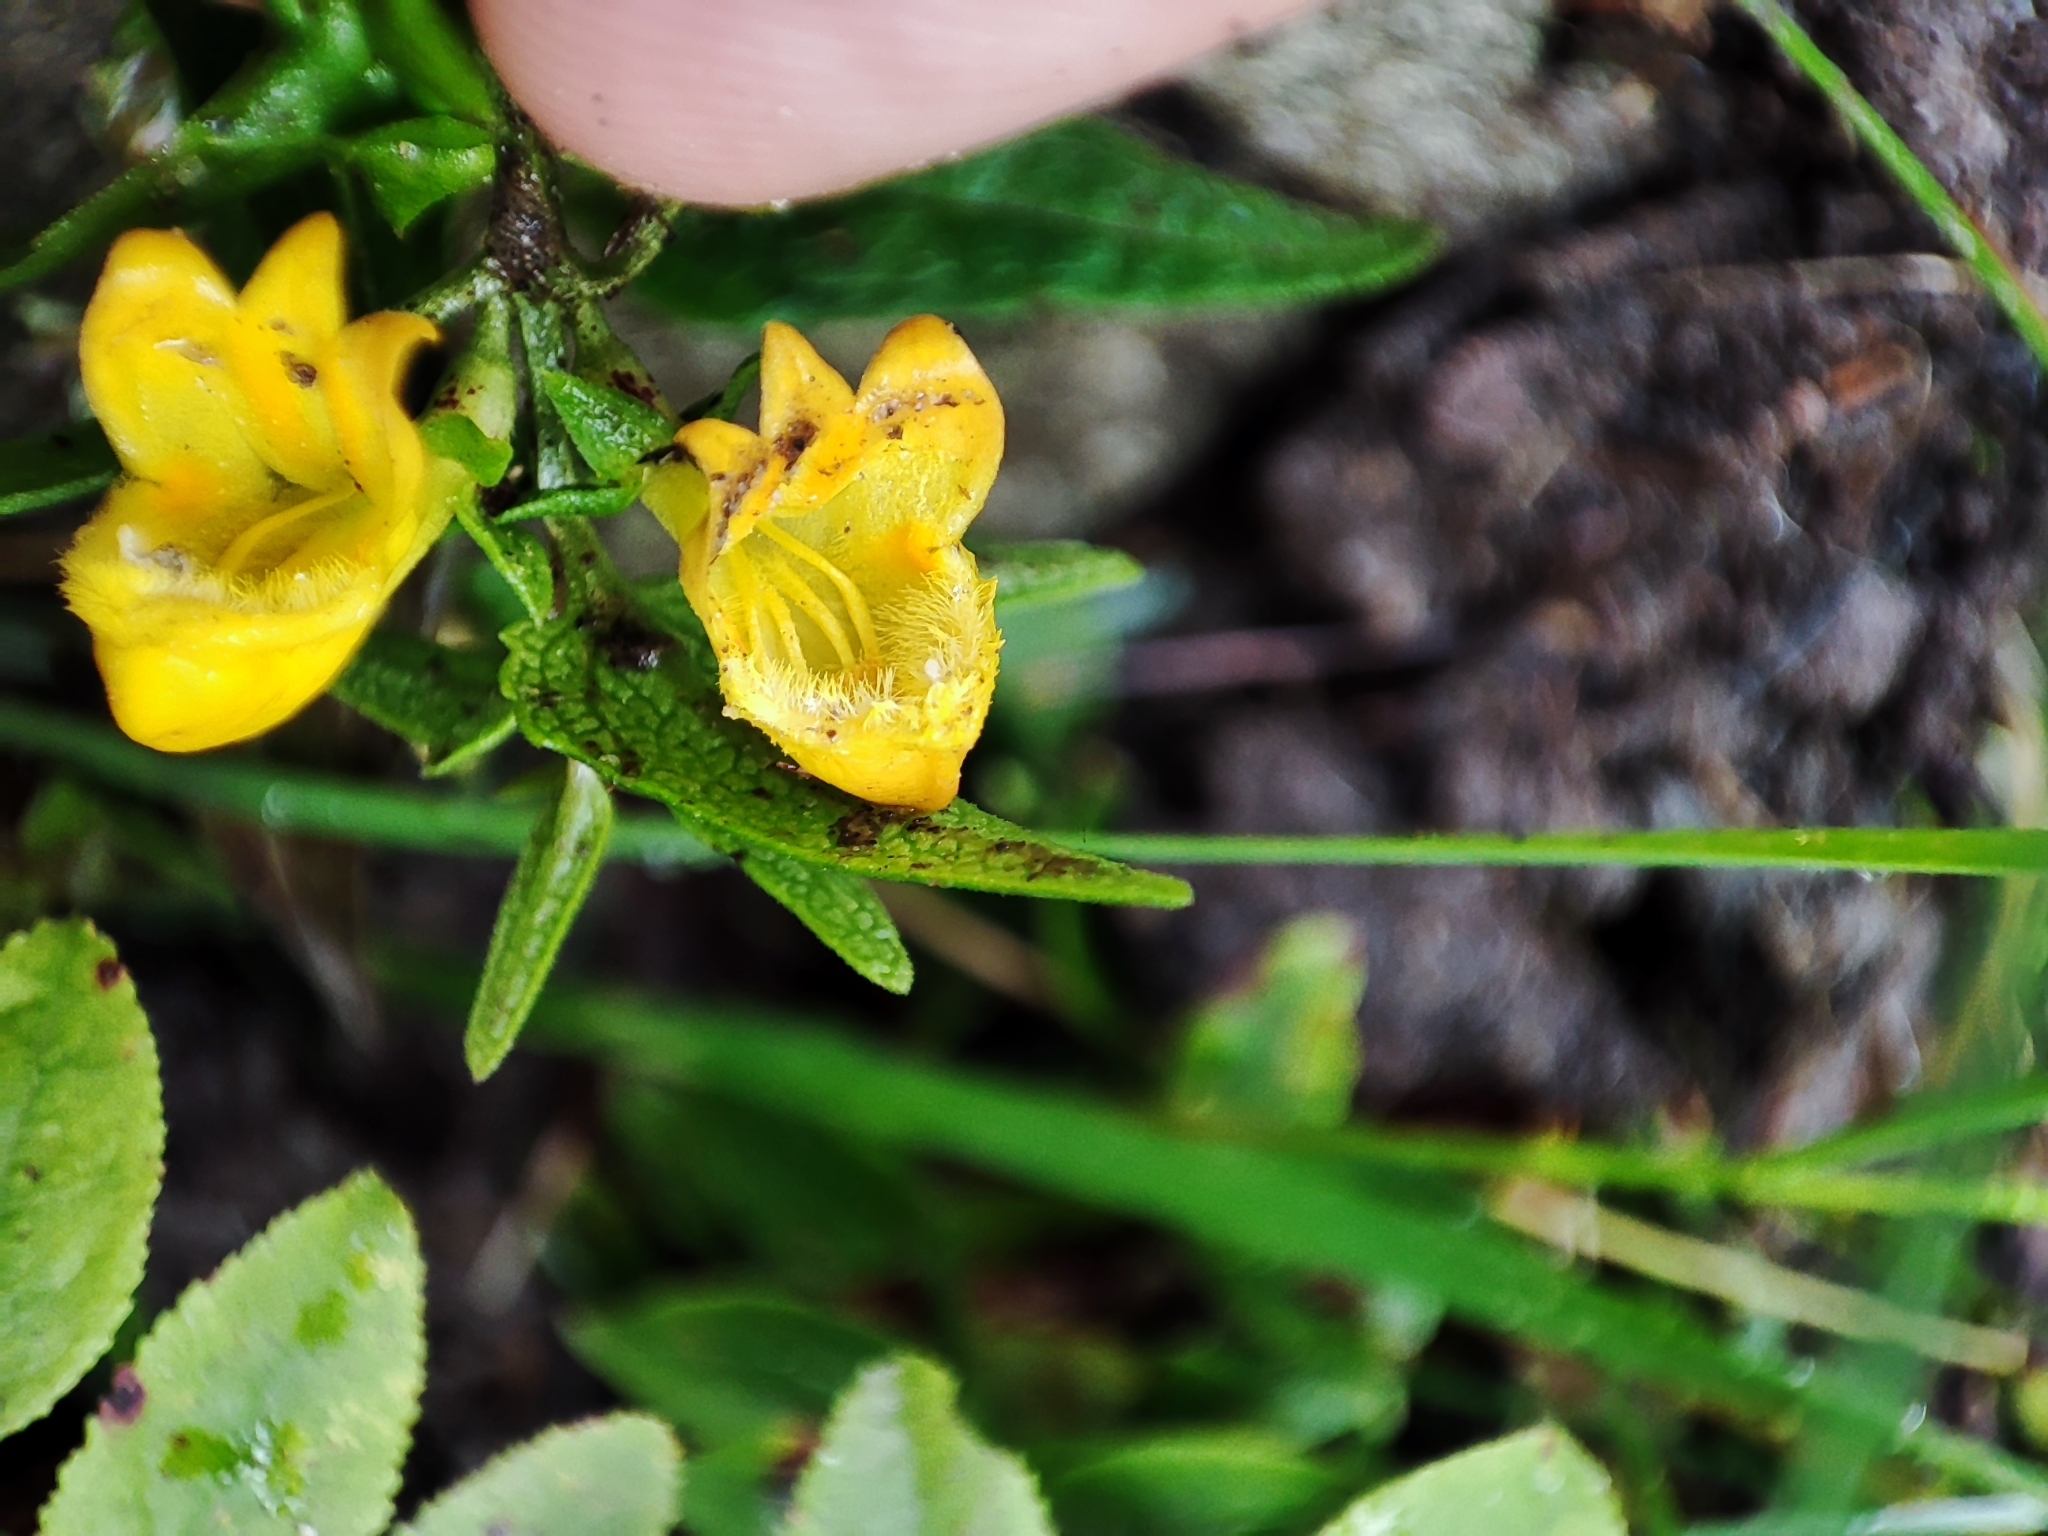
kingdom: Plantae
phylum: Tracheophyta
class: Magnoliopsida
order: Lamiales
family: Orobanchaceae
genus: Melampyrum
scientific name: Melampyrum sylvaticum
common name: Small cow-wheat
